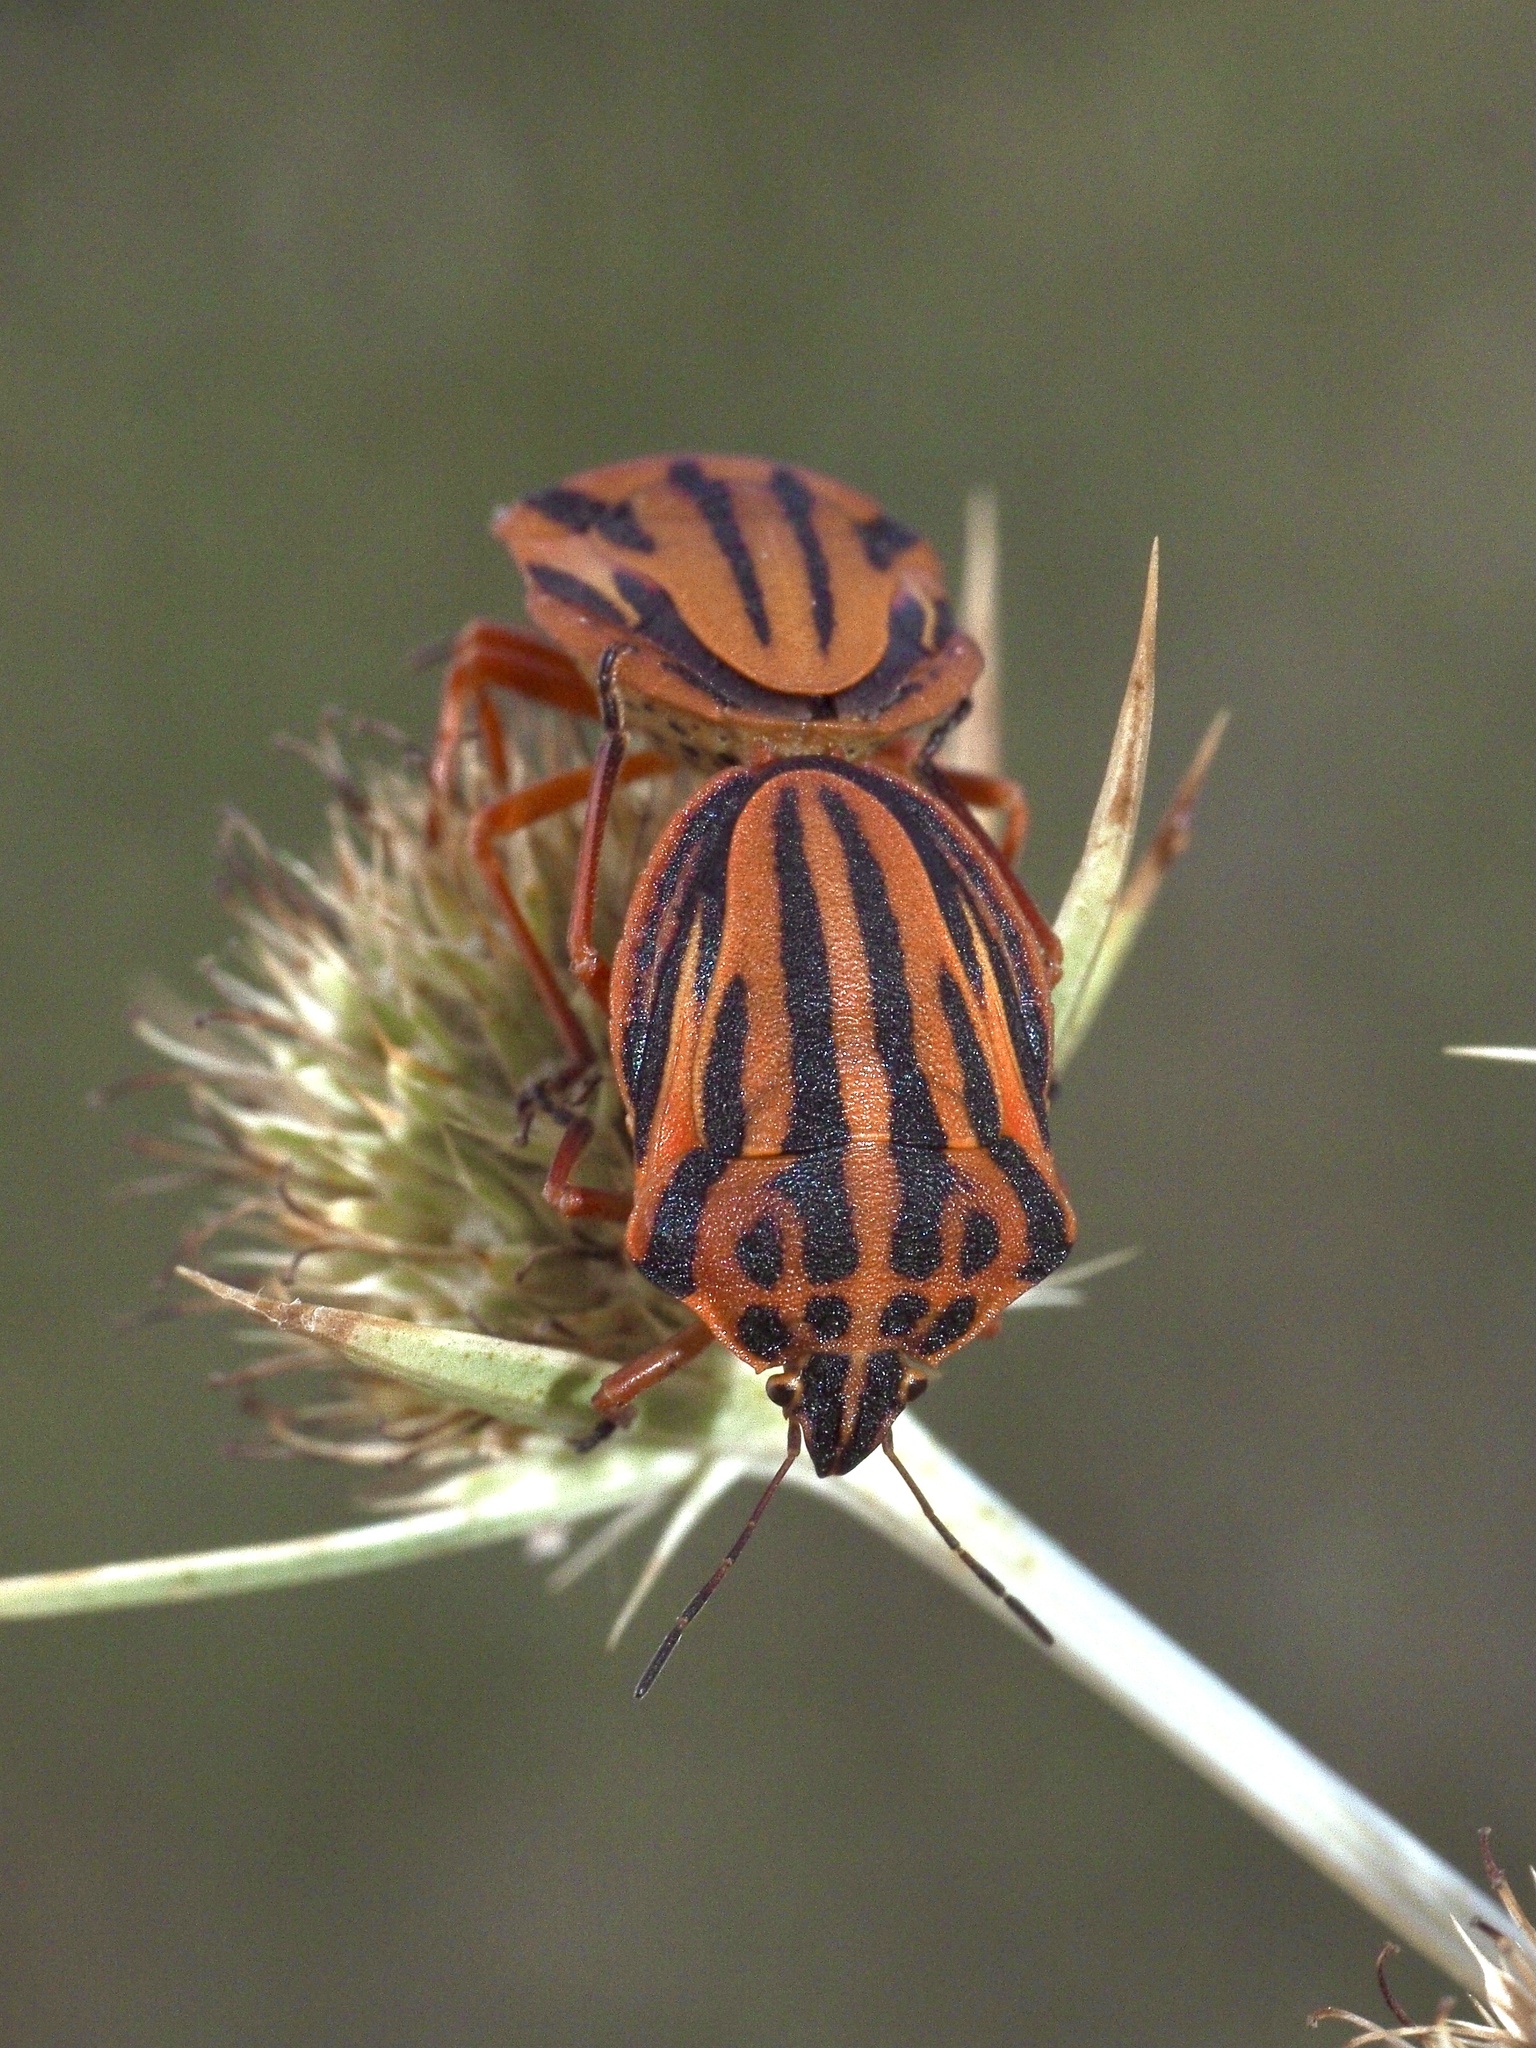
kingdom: Animalia
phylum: Arthropoda
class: Insecta
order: Hemiptera
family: Pentatomidae
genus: Graphosoma
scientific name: Graphosoma semipunctatum
